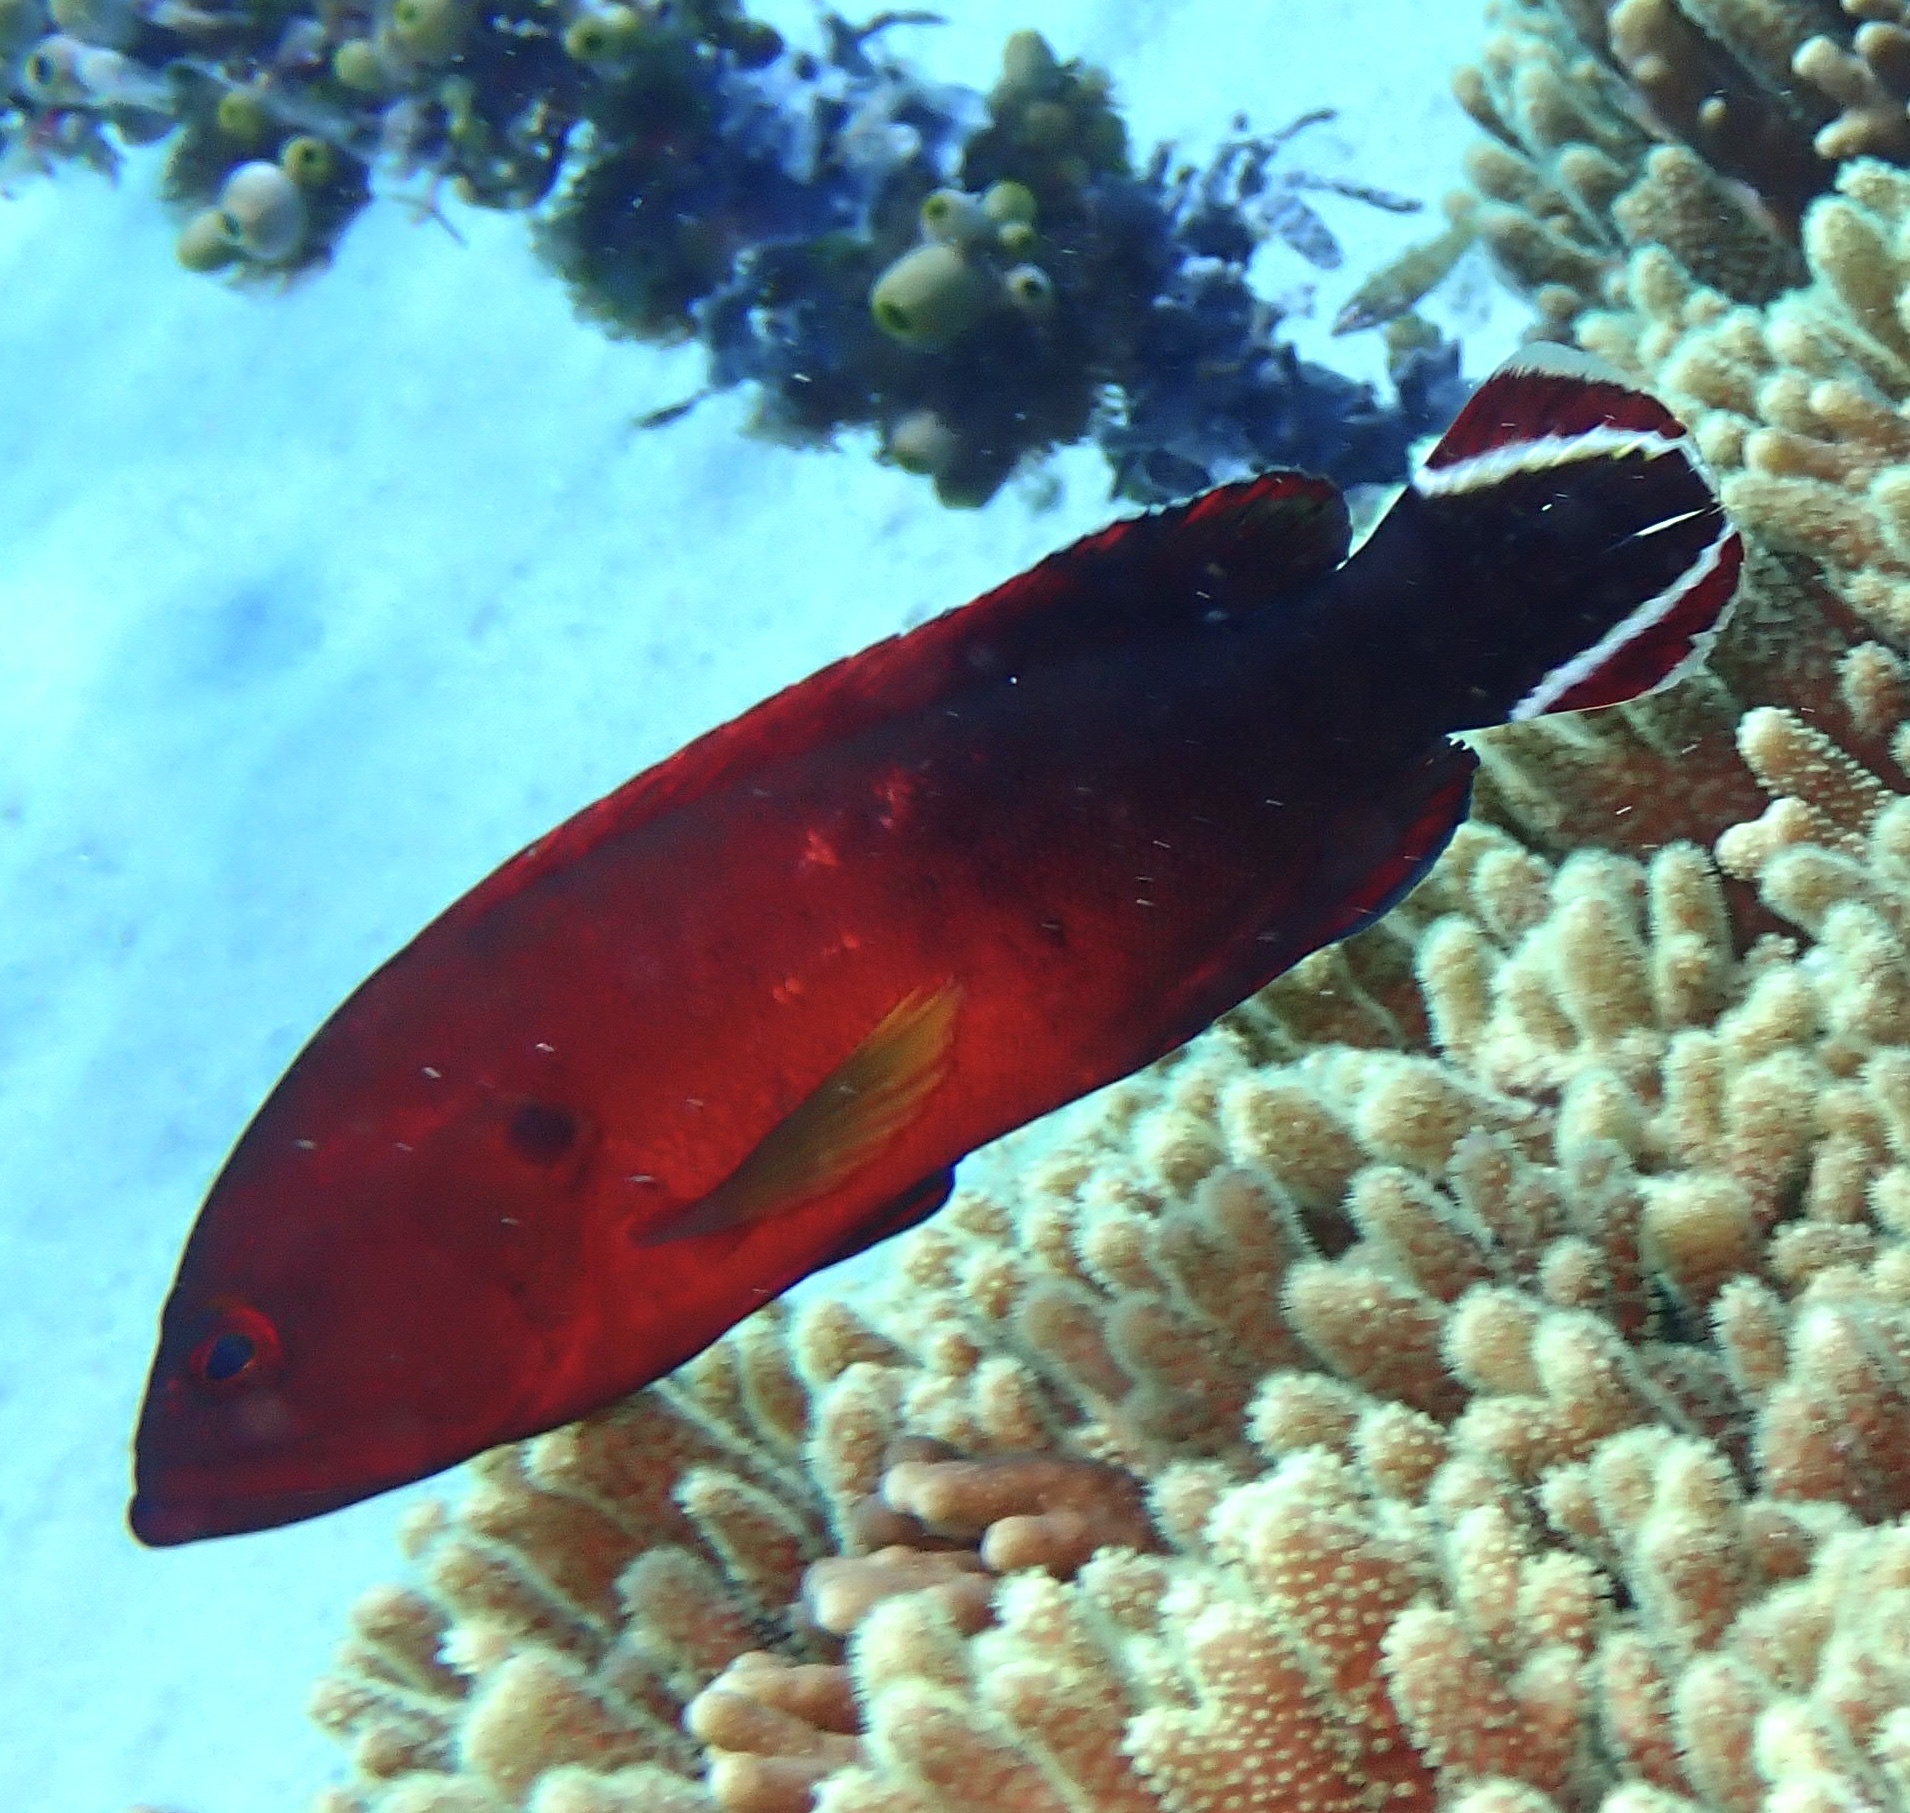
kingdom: Animalia
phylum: Chordata
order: Perciformes
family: Serranidae
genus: Cephalopholis
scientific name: Cephalopholis urodeta
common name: Darkfin hind
